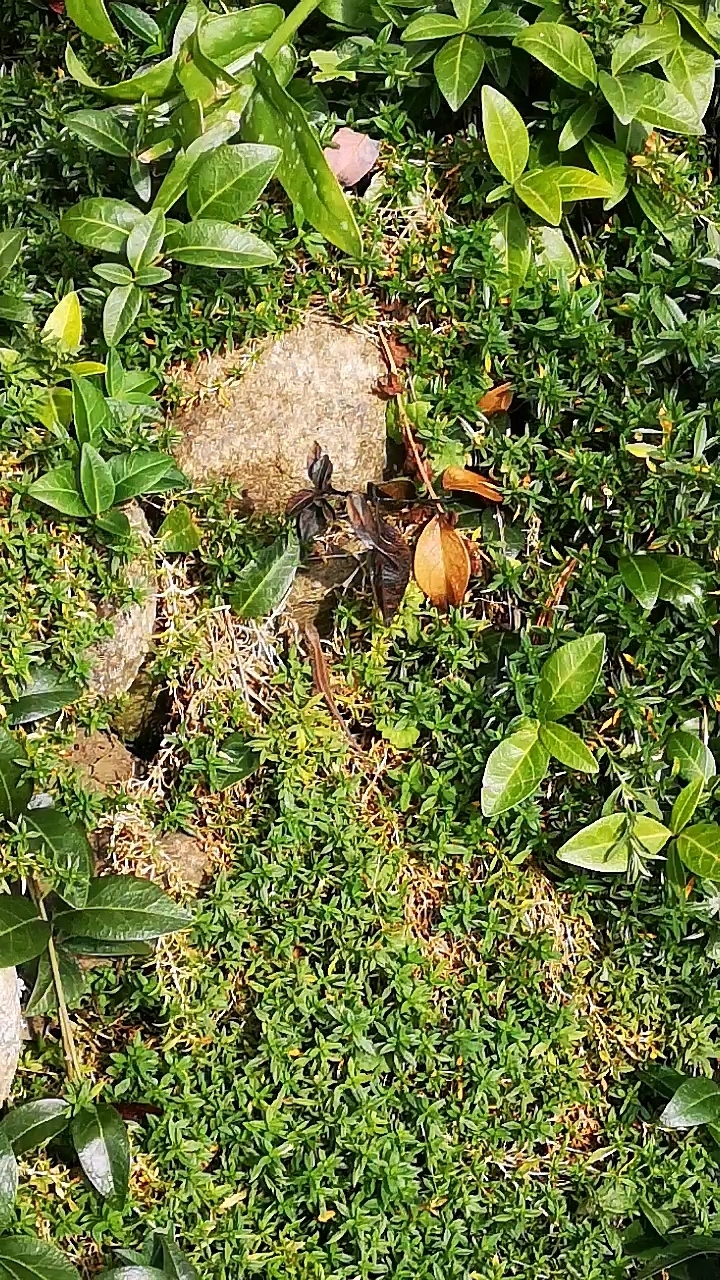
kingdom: Animalia
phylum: Chordata
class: Squamata
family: Lacertidae
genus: Lacerta
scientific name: Lacerta agilis
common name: Sand lizard
